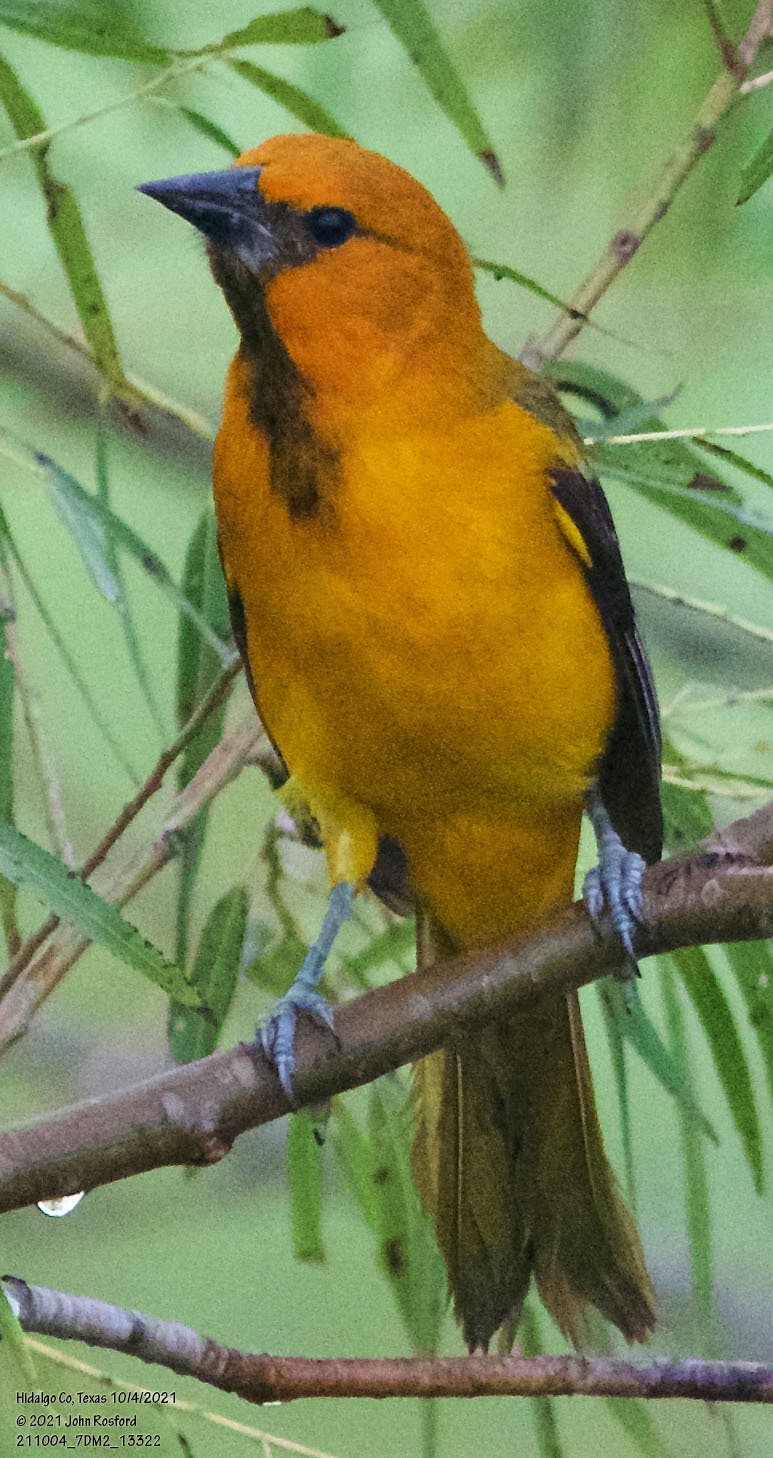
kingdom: Animalia
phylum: Chordata
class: Aves
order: Passeriformes
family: Icteridae
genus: Icterus
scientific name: Icterus gularis
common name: Altamira oriole
